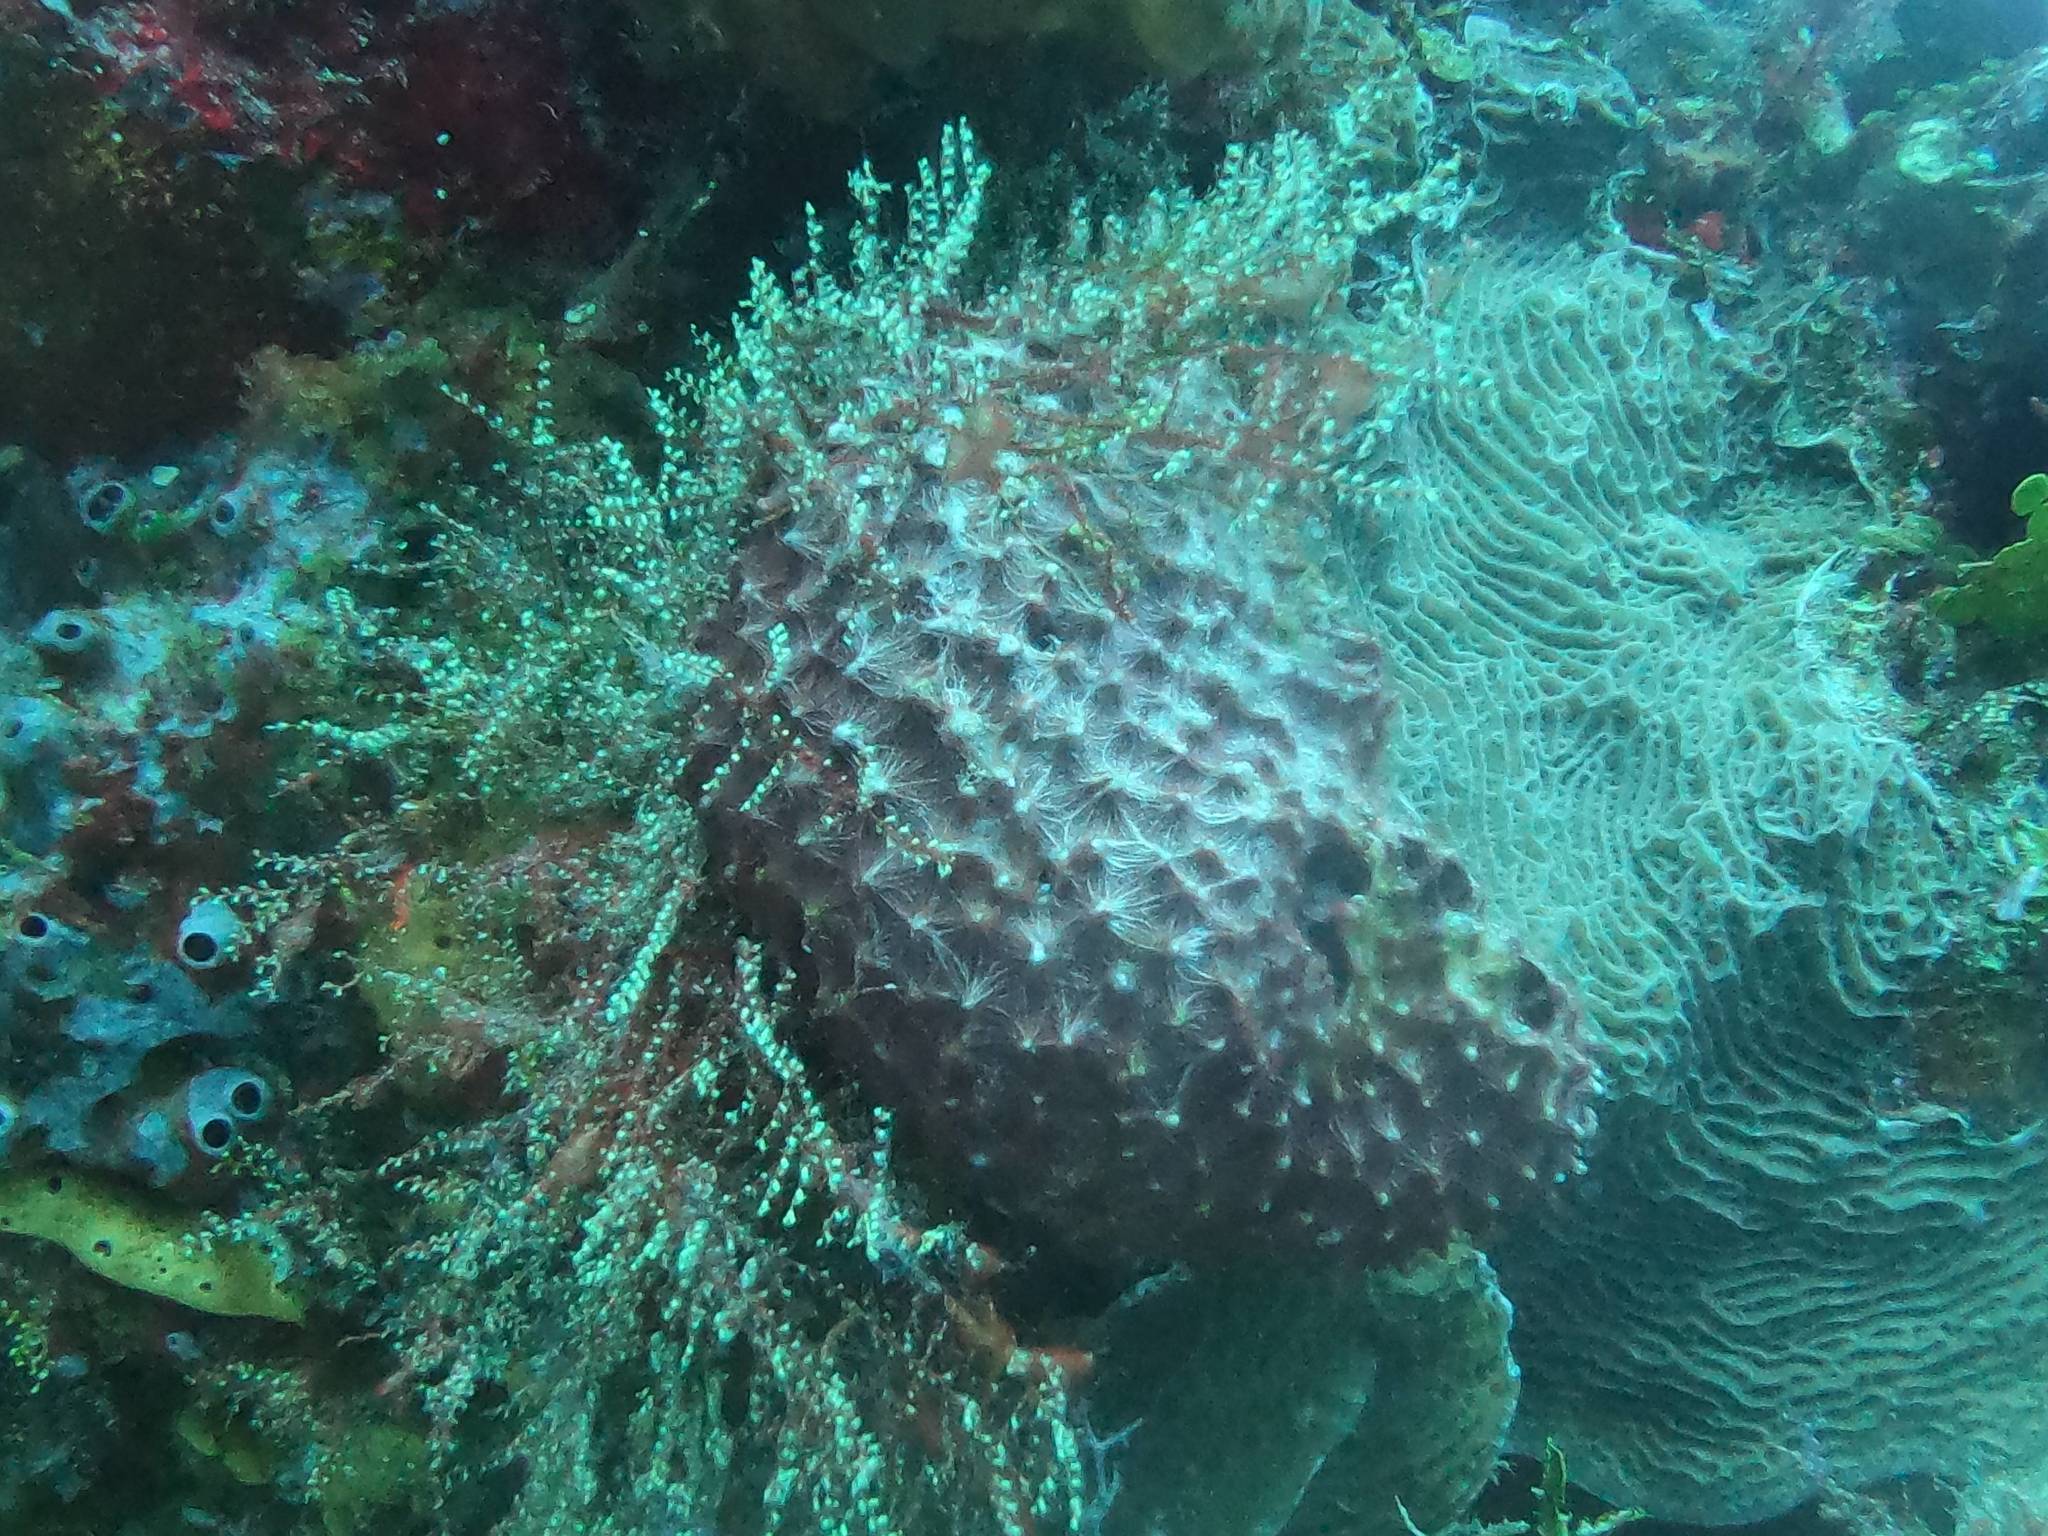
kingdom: Animalia
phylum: Porifera
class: Demospongiae
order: Dictyoceratida
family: Irciniidae
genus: Ircinia
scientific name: Ircinia felix
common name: Stinker sponge
